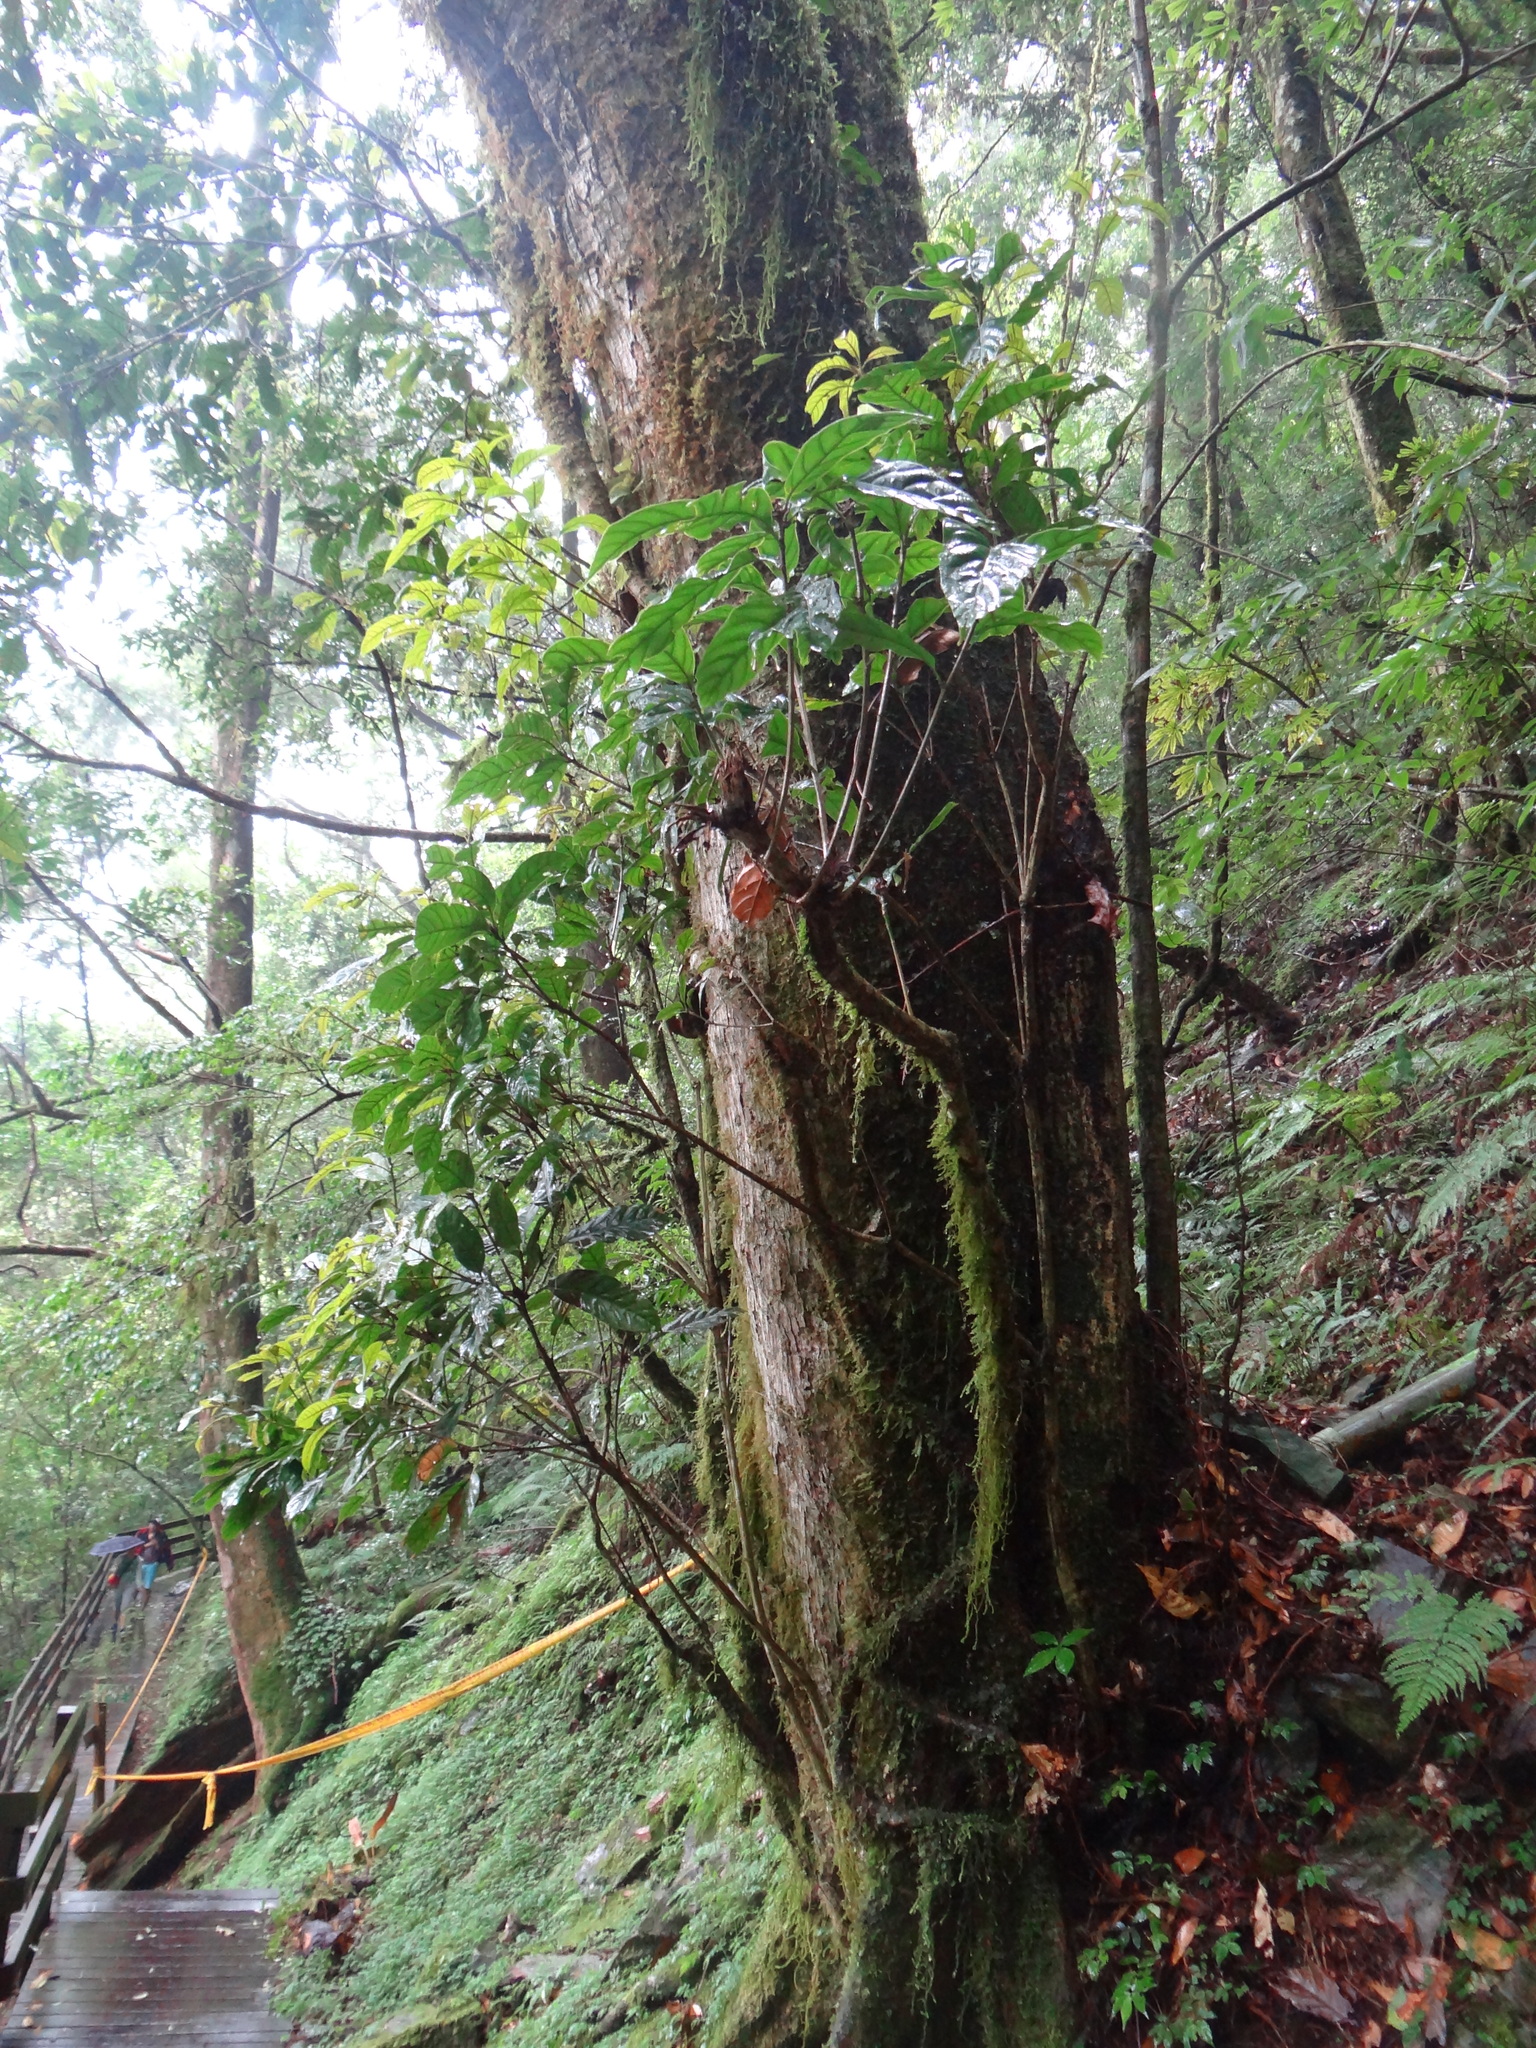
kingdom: Plantae
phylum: Tracheophyta
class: Magnoliopsida
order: Fagales
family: Fagaceae
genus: Lithocarpus
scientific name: Lithocarpus kawakamii
